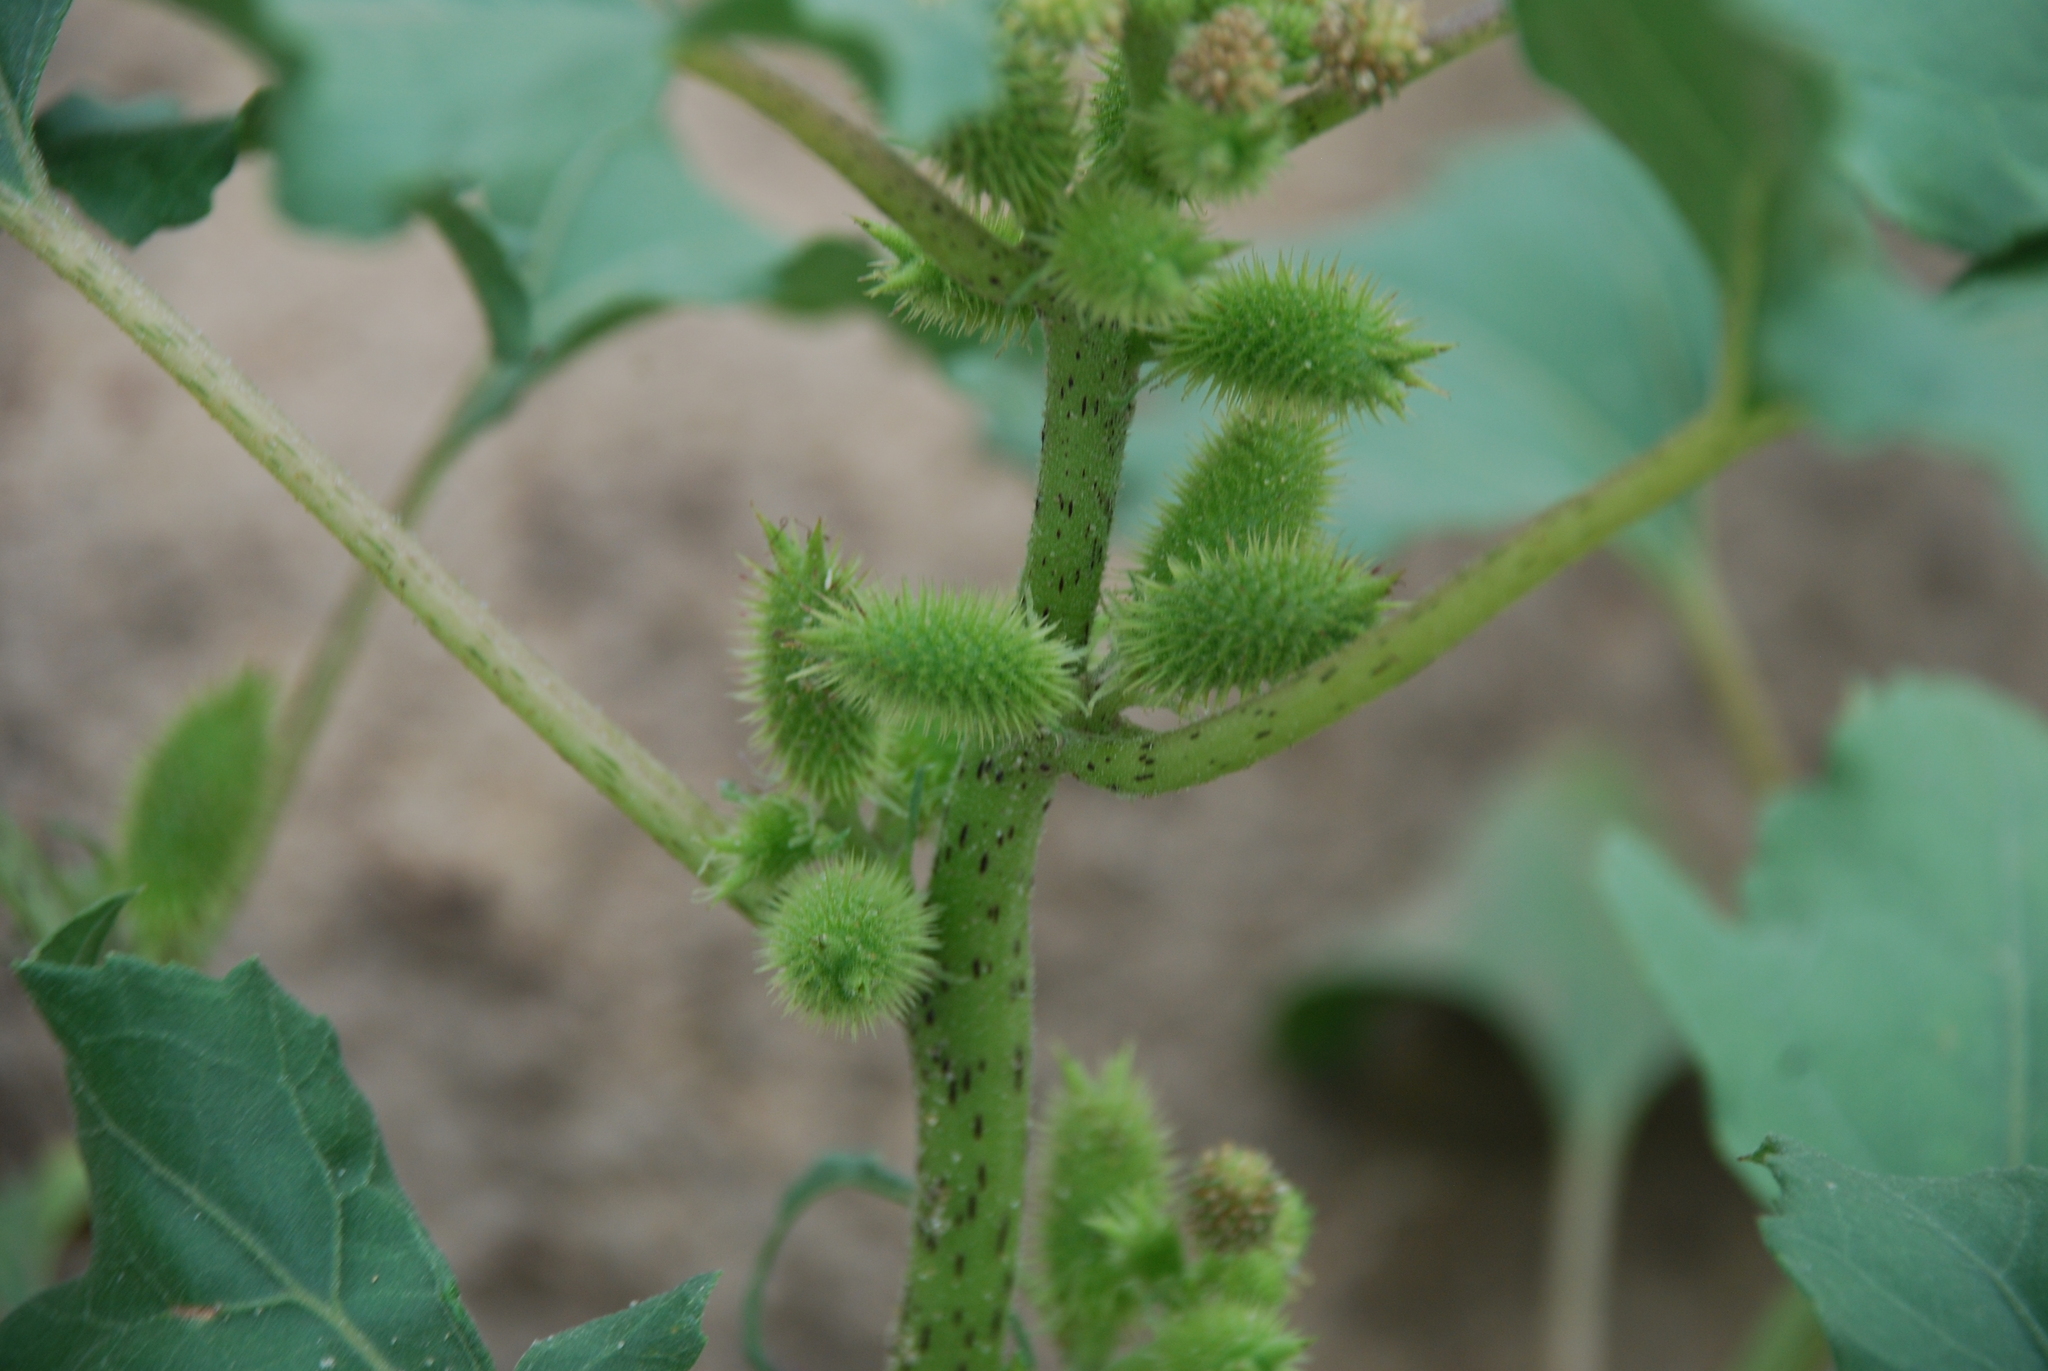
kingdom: Plantae
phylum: Tracheophyta
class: Magnoliopsida
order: Asterales
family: Asteraceae
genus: Xanthium
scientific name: Xanthium orientale
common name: Californian burr
